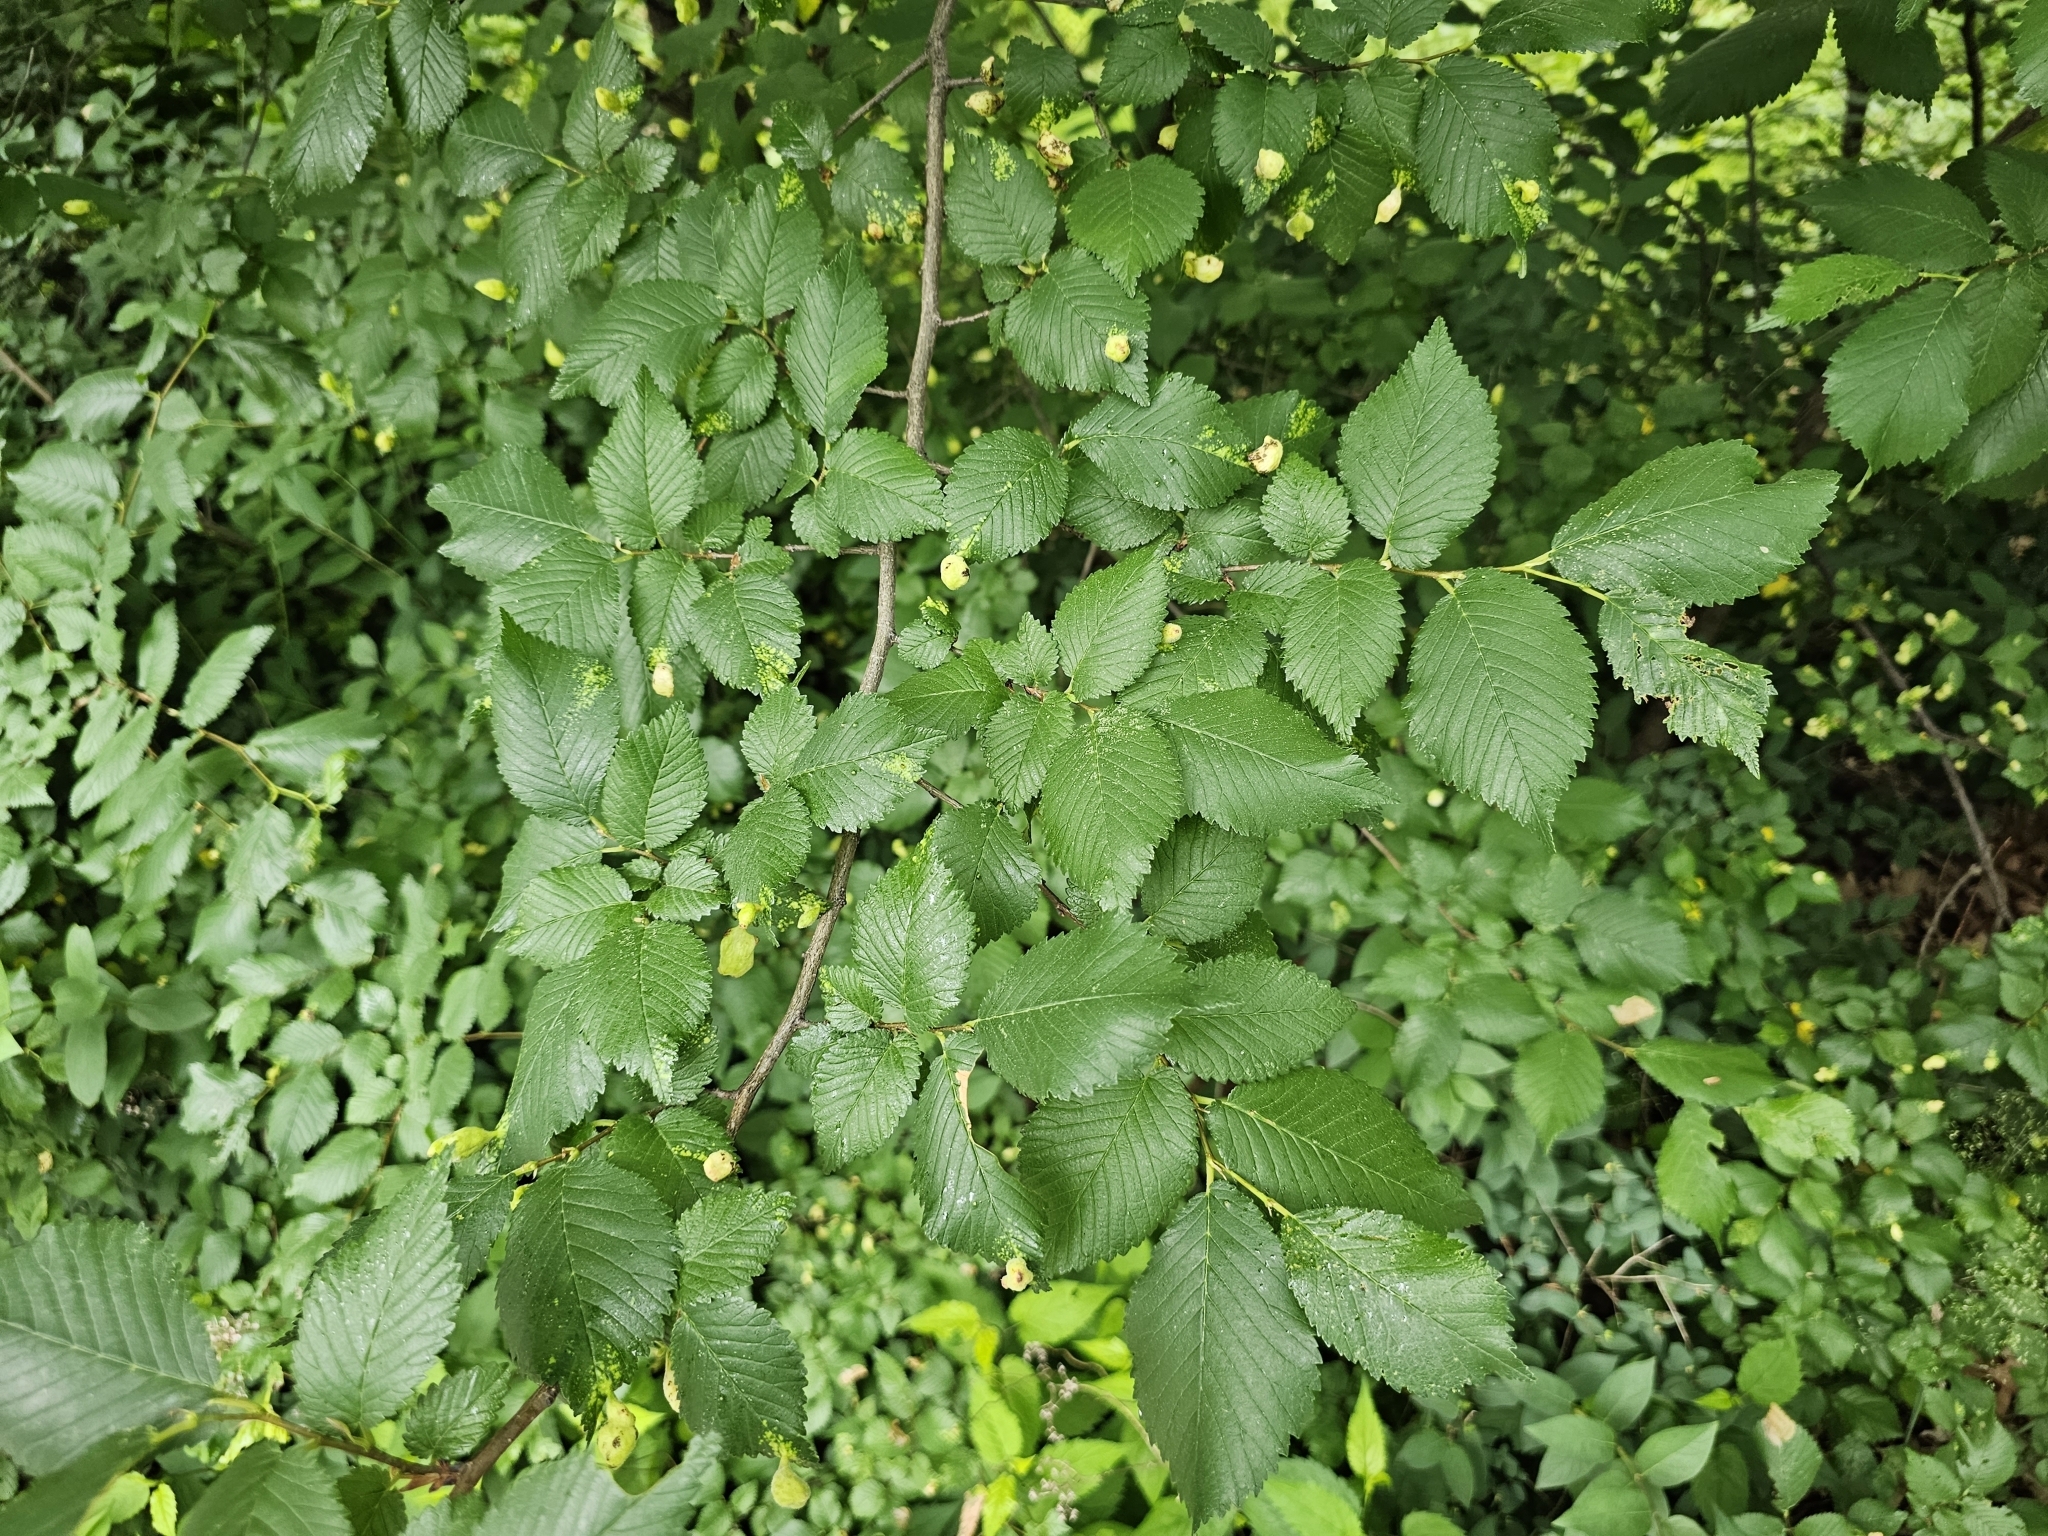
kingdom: Animalia
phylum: Arthropoda
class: Insecta
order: Hemiptera
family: Aphididae
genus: Tetraneura
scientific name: Tetraneura nigriabdominalis
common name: Aphid
